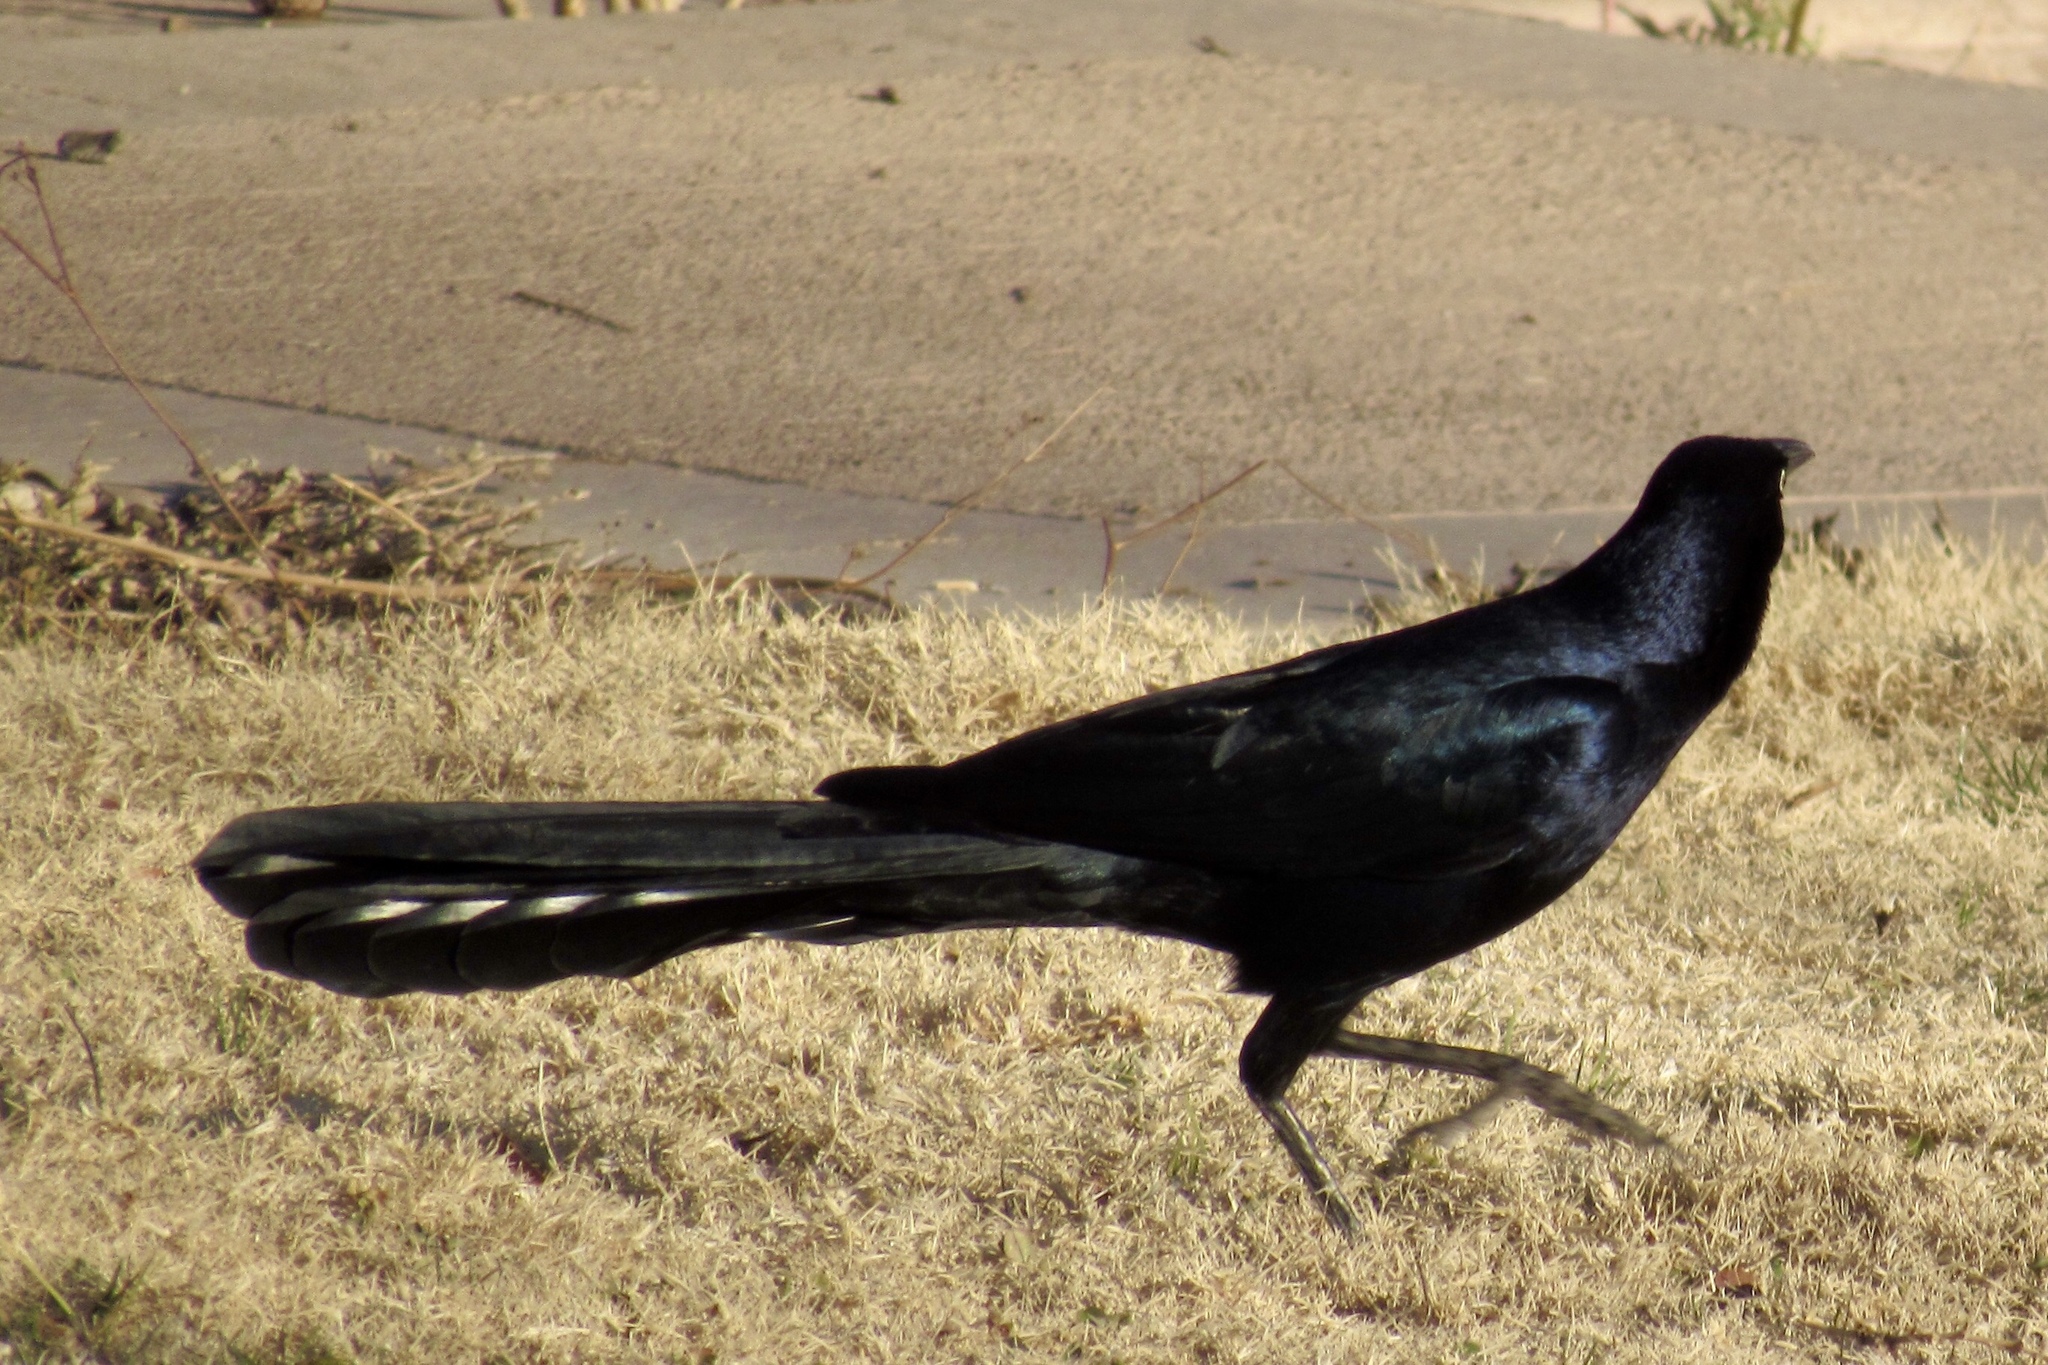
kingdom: Animalia
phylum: Chordata
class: Aves
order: Passeriformes
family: Icteridae
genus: Quiscalus
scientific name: Quiscalus mexicanus
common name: Great-tailed grackle
